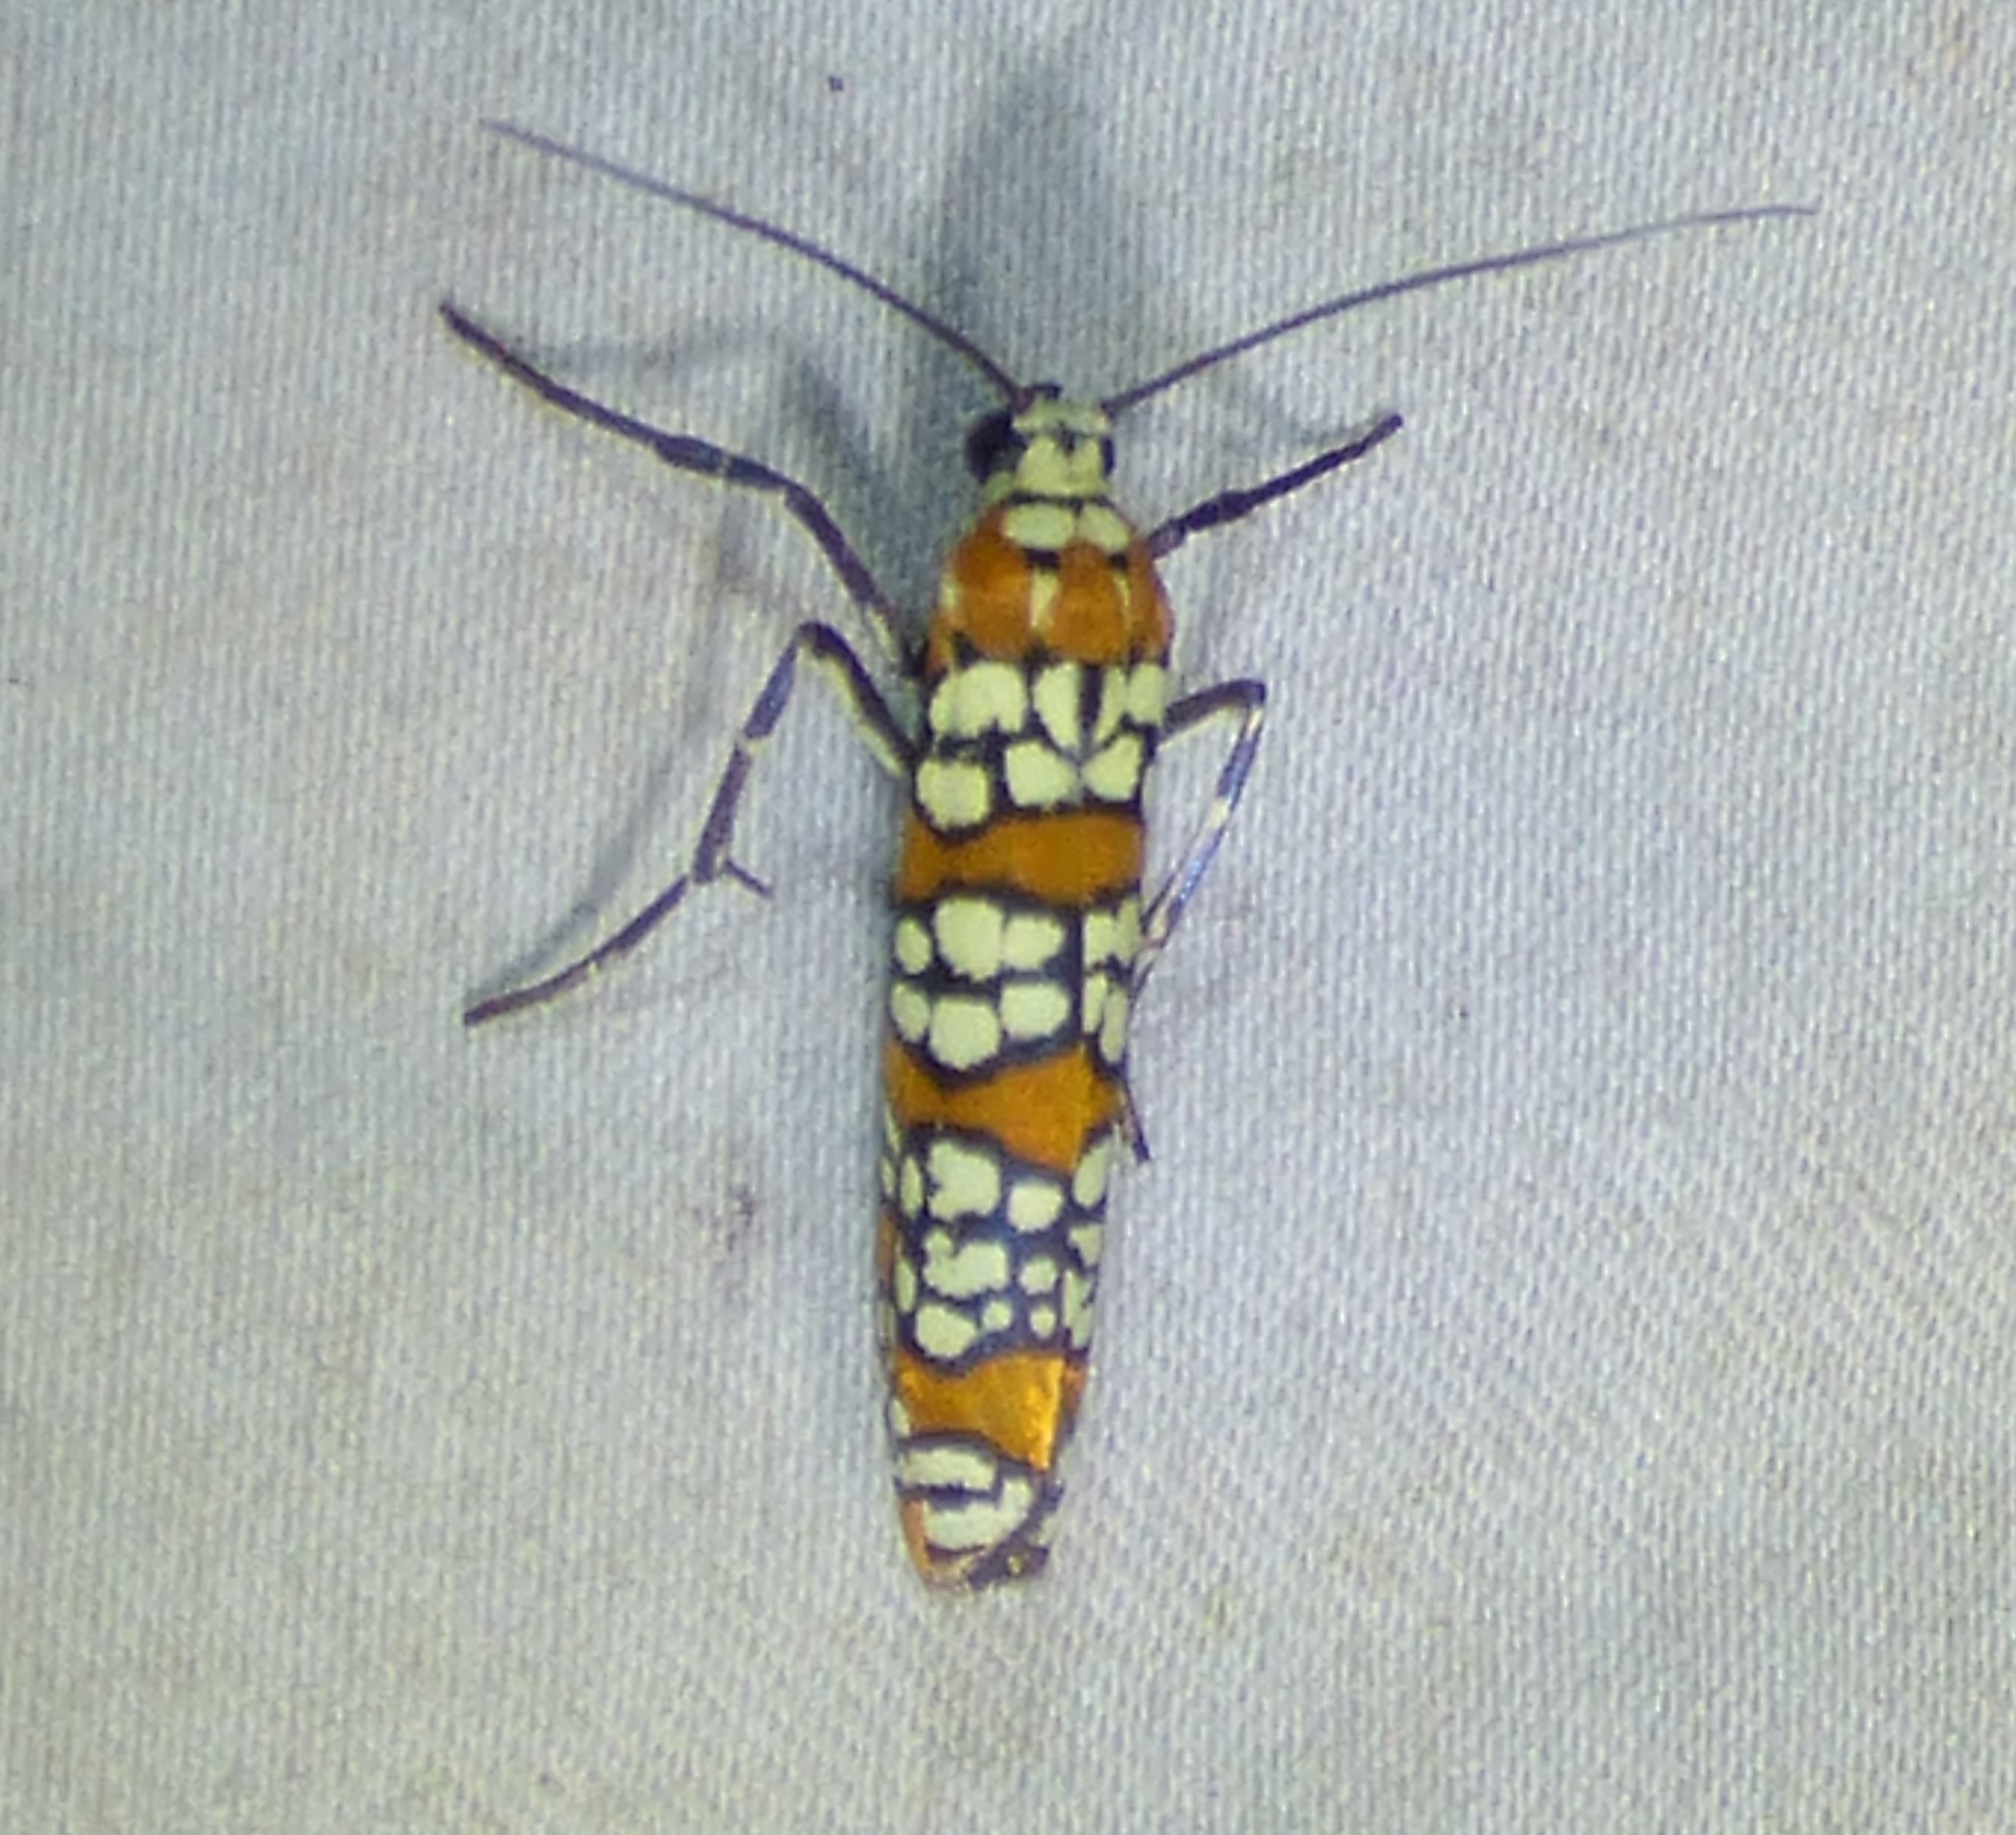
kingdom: Animalia
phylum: Arthropoda
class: Insecta
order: Lepidoptera
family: Attevidae
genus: Atteva
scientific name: Atteva punctella
